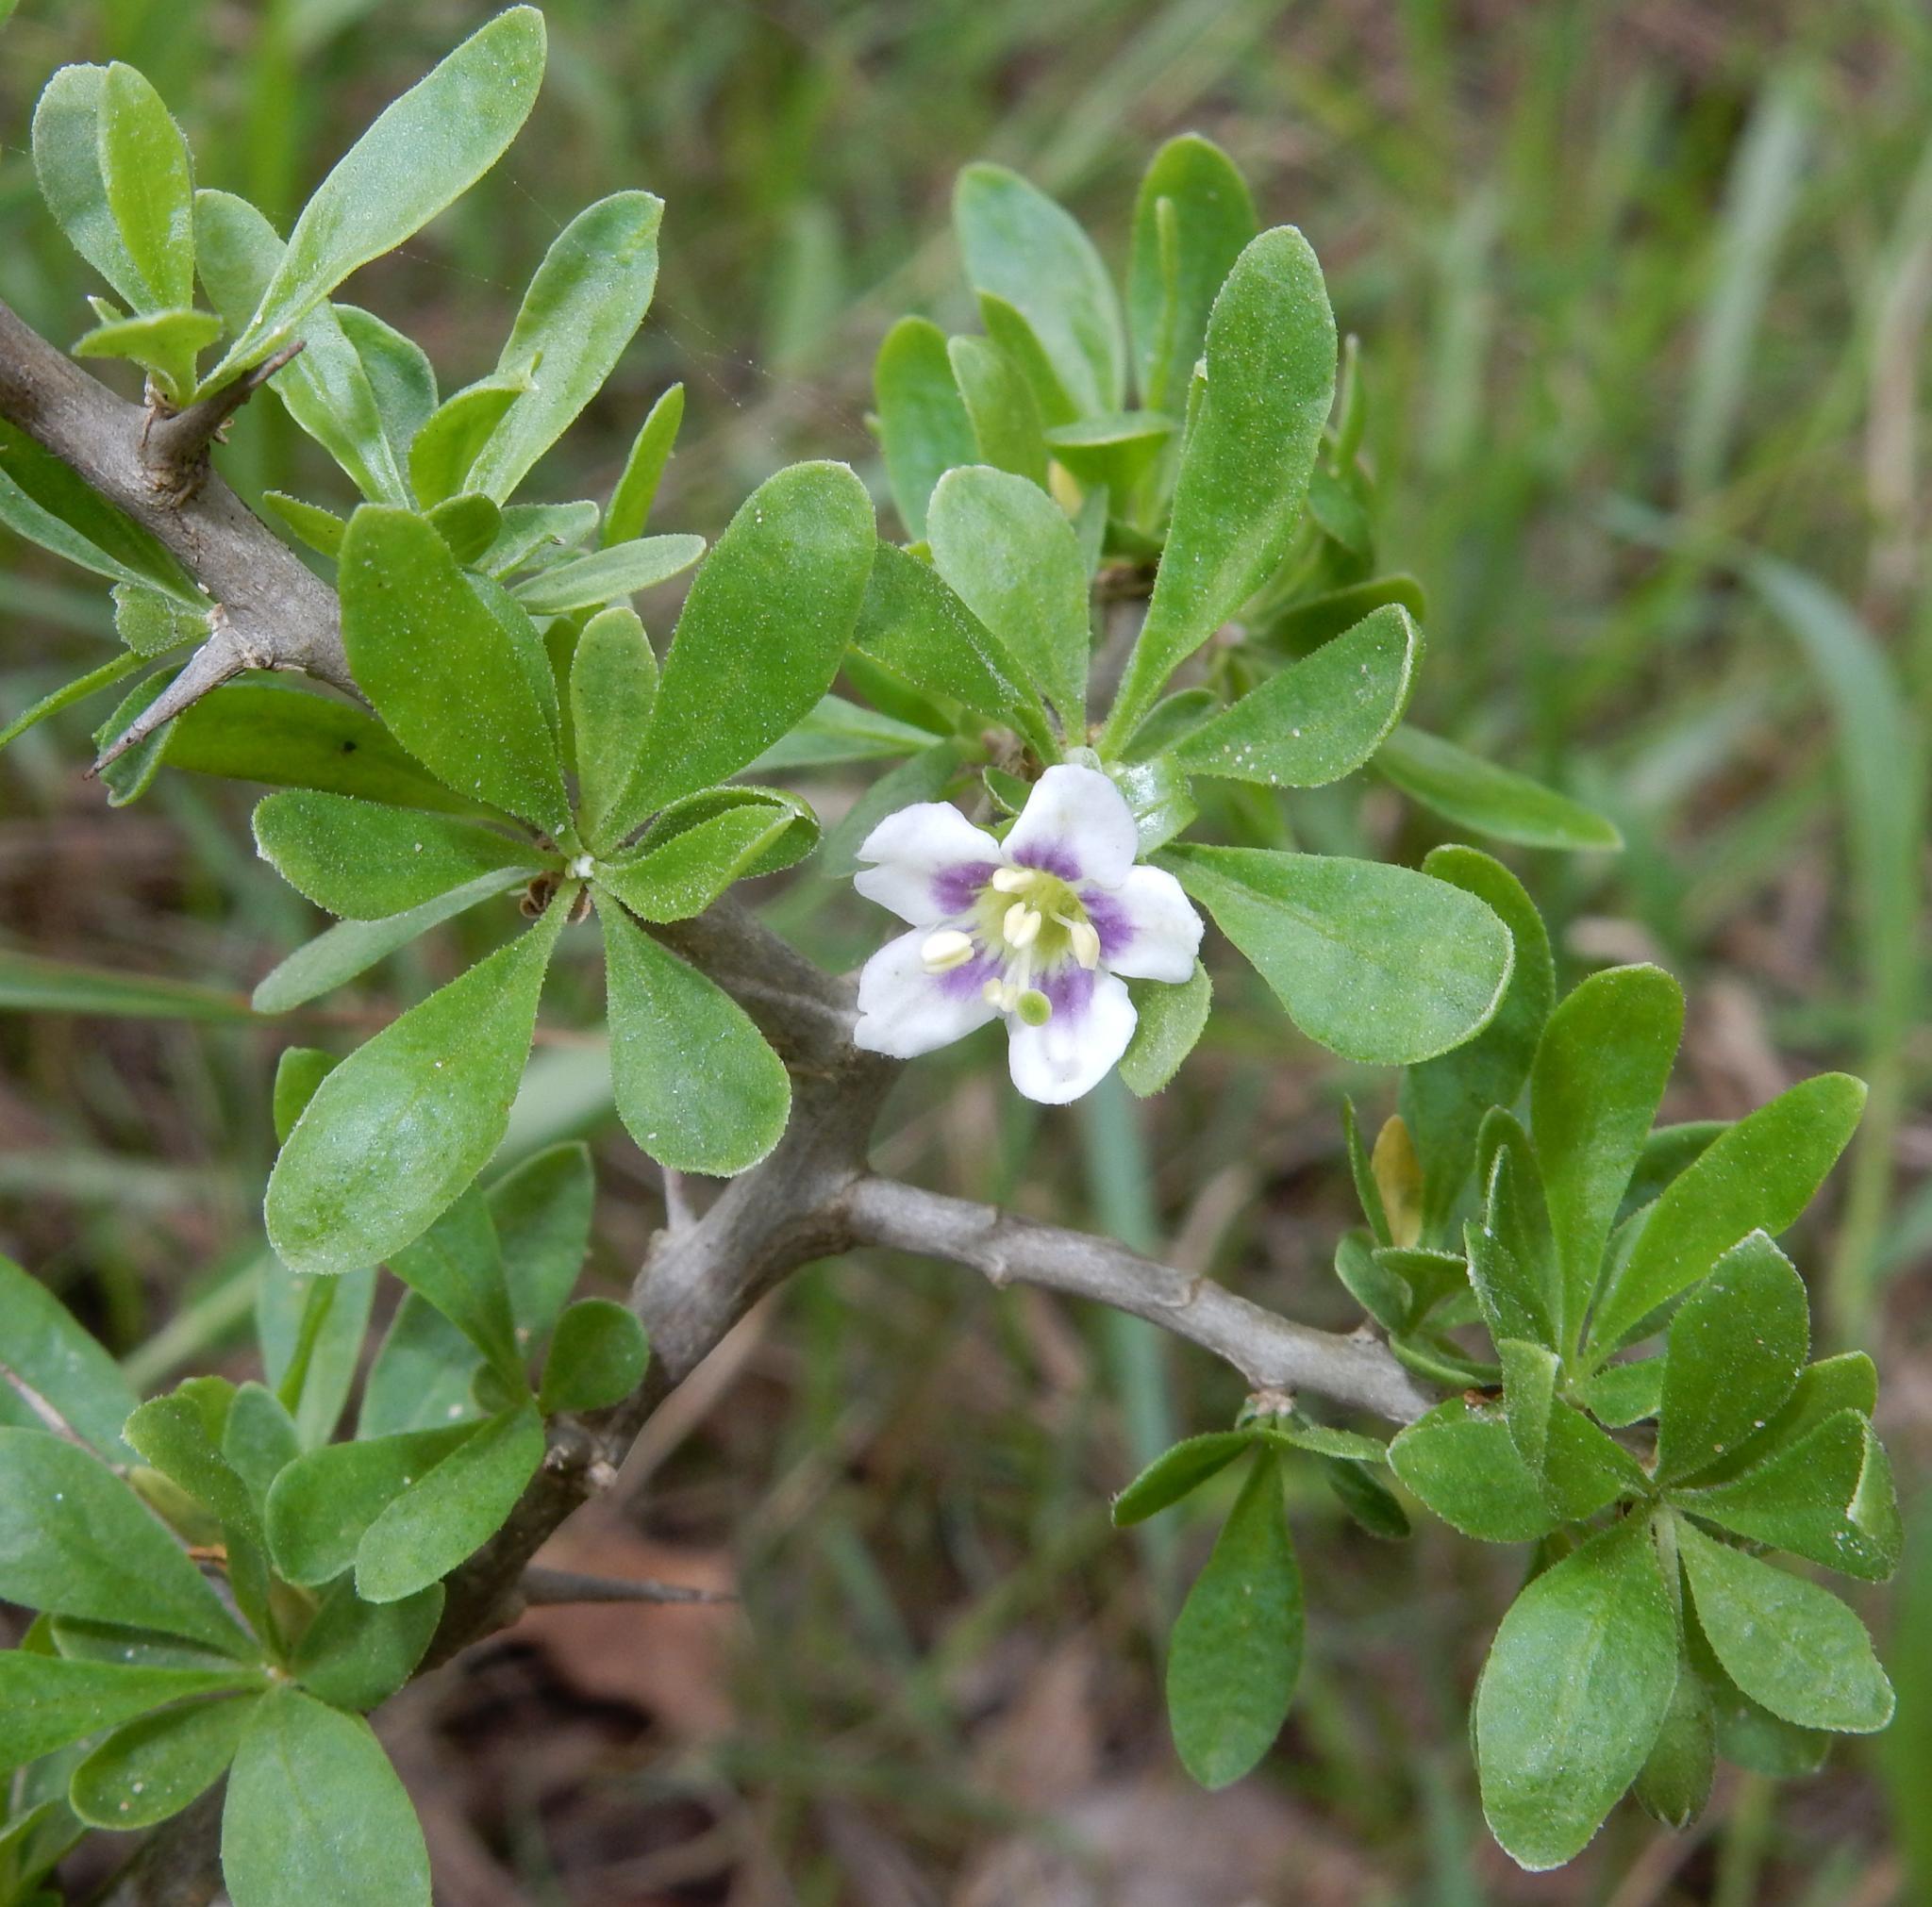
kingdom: Plantae
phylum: Tracheophyta
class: Magnoliopsida
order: Solanales
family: Solanaceae
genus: Lycium
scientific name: Lycium ferocissimum
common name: African boxthorn
